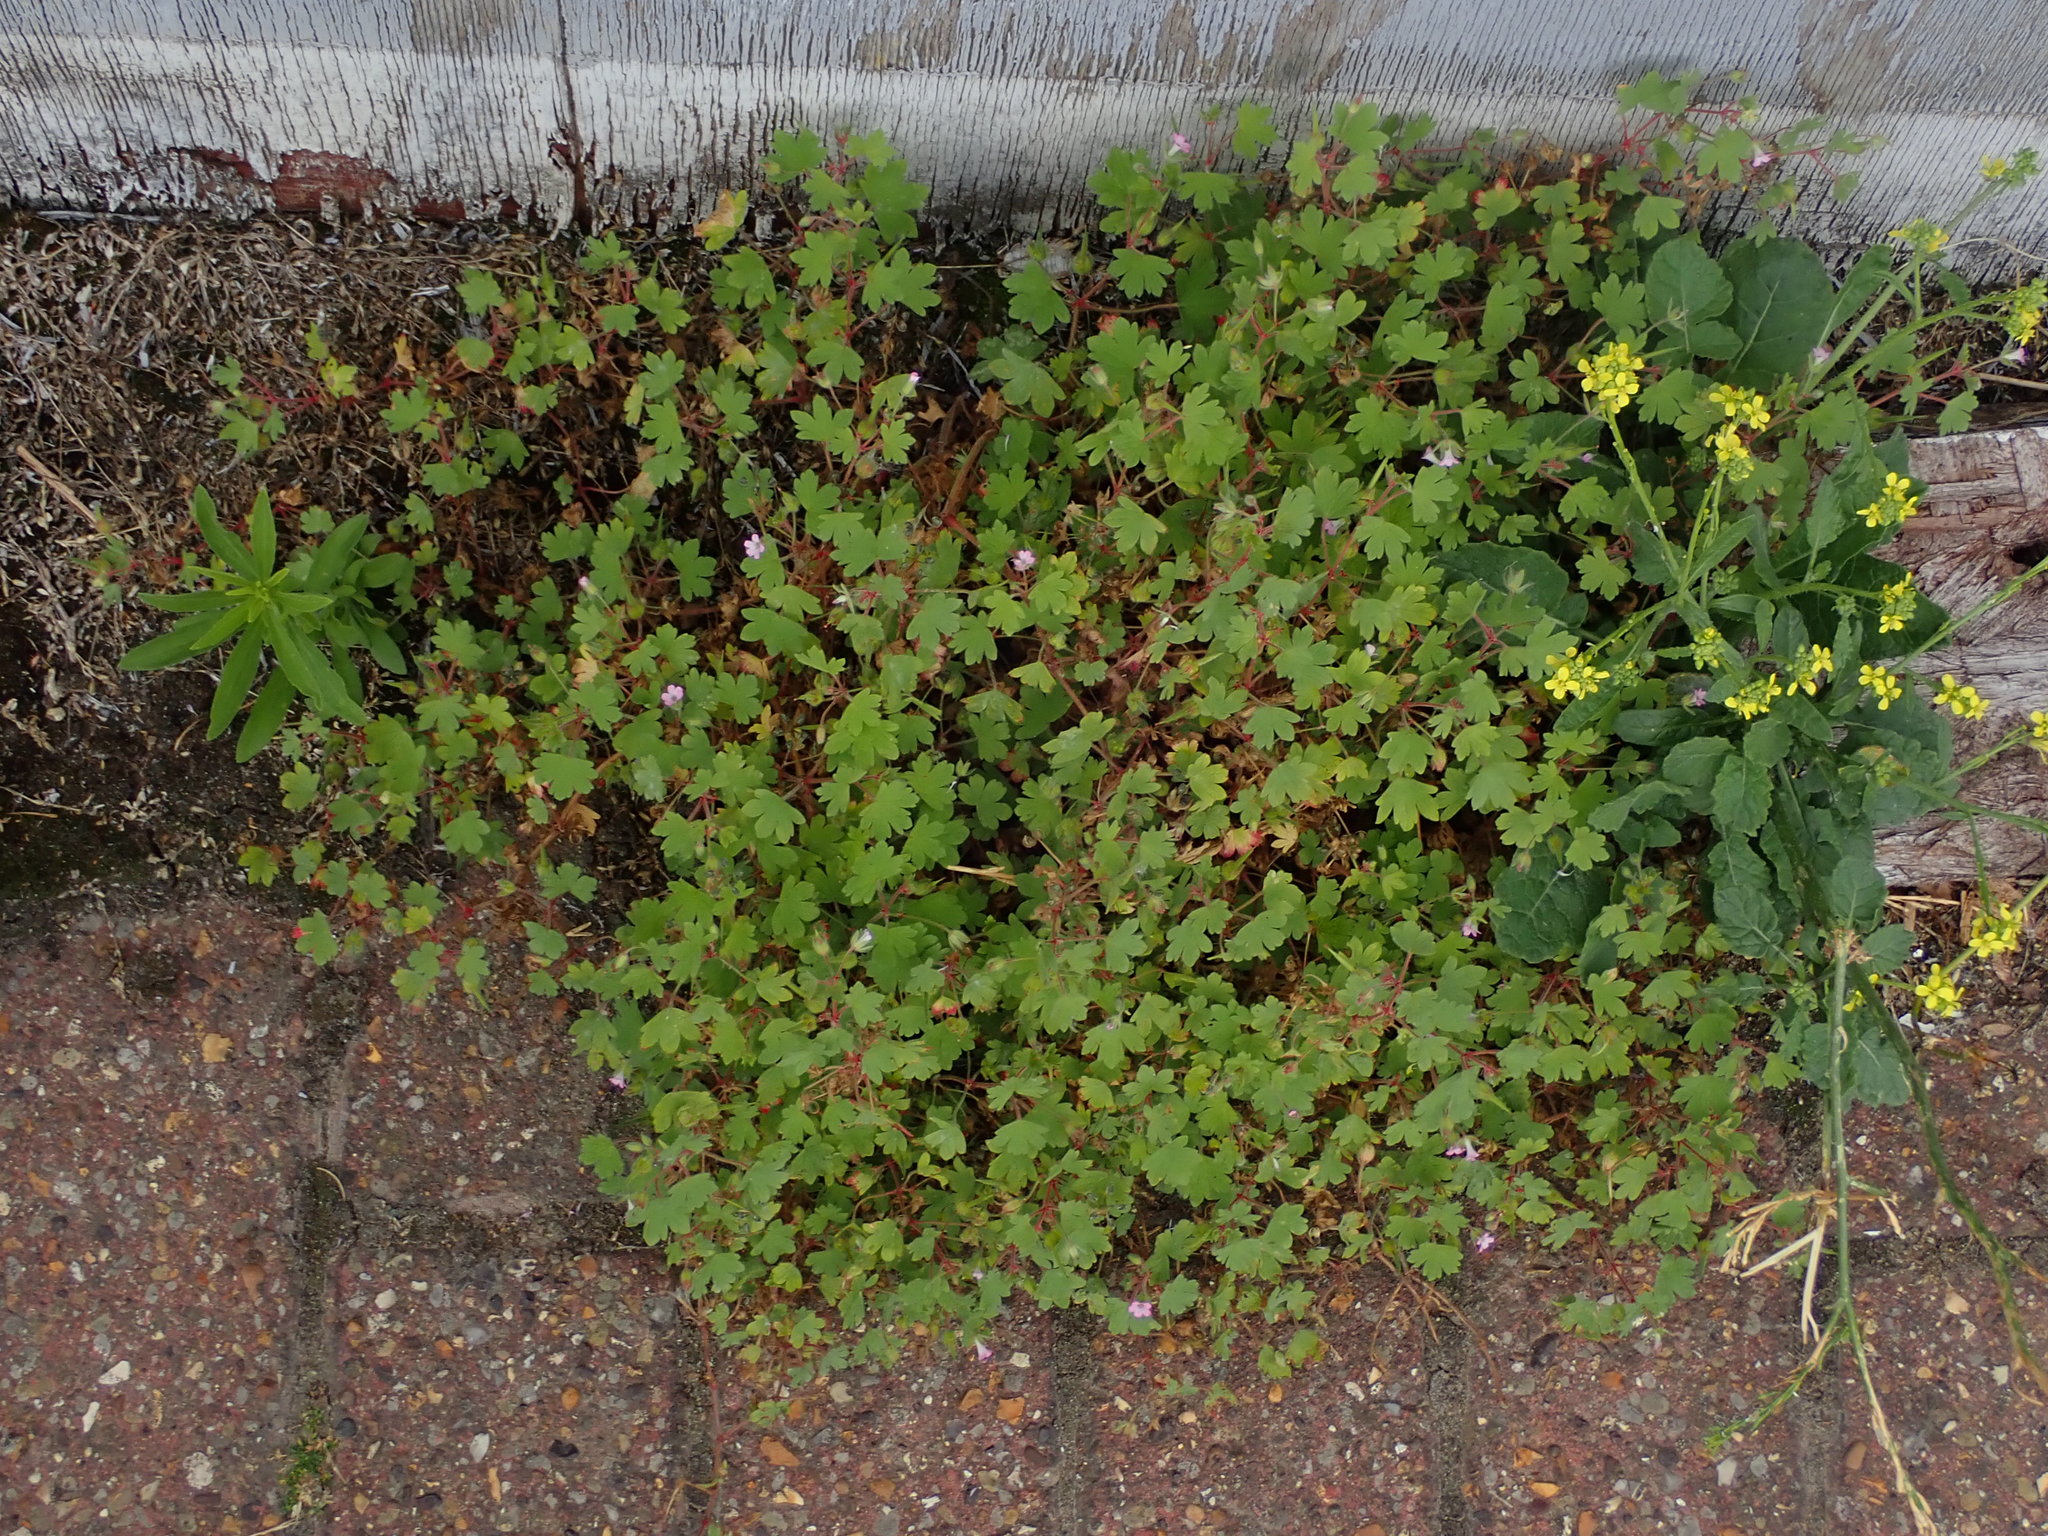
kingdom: Plantae
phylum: Tracheophyta
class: Magnoliopsida
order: Geraniales
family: Geraniaceae
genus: Geranium
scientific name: Geranium rotundifolium
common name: Round-leaved crane's-bill
